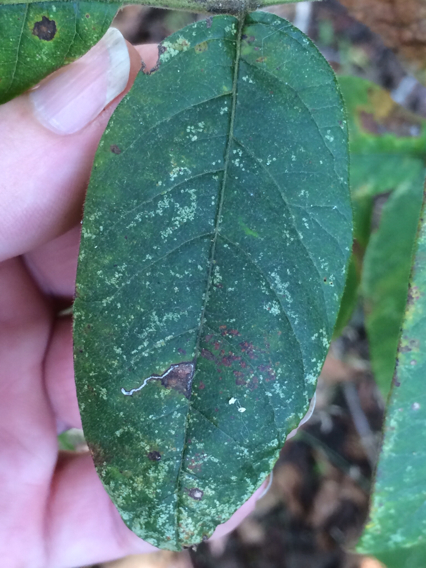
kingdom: Plantae
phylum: Tracheophyta
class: Magnoliopsida
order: Sapindales
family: Anacardiaceae
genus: Toxicodendron
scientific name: Toxicodendron radicans
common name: Poison ivy
